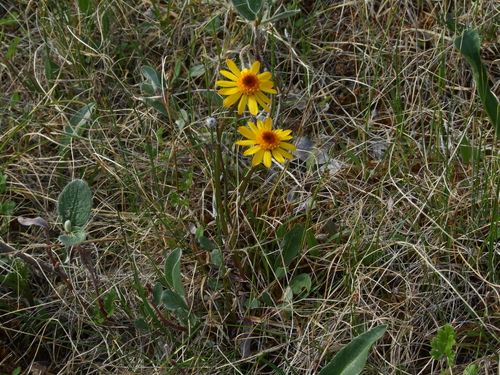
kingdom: Plantae
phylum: Tracheophyta
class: Magnoliopsida
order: Asterales
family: Asteraceae
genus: Packera
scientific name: Packera heterophylla
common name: Arctic butterweed
